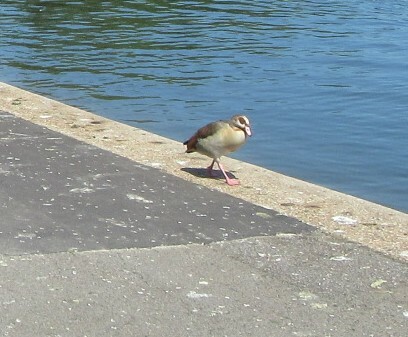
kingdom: Animalia
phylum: Chordata
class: Aves
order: Anseriformes
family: Anatidae
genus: Alopochen
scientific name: Alopochen aegyptiaca
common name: Egyptian goose
